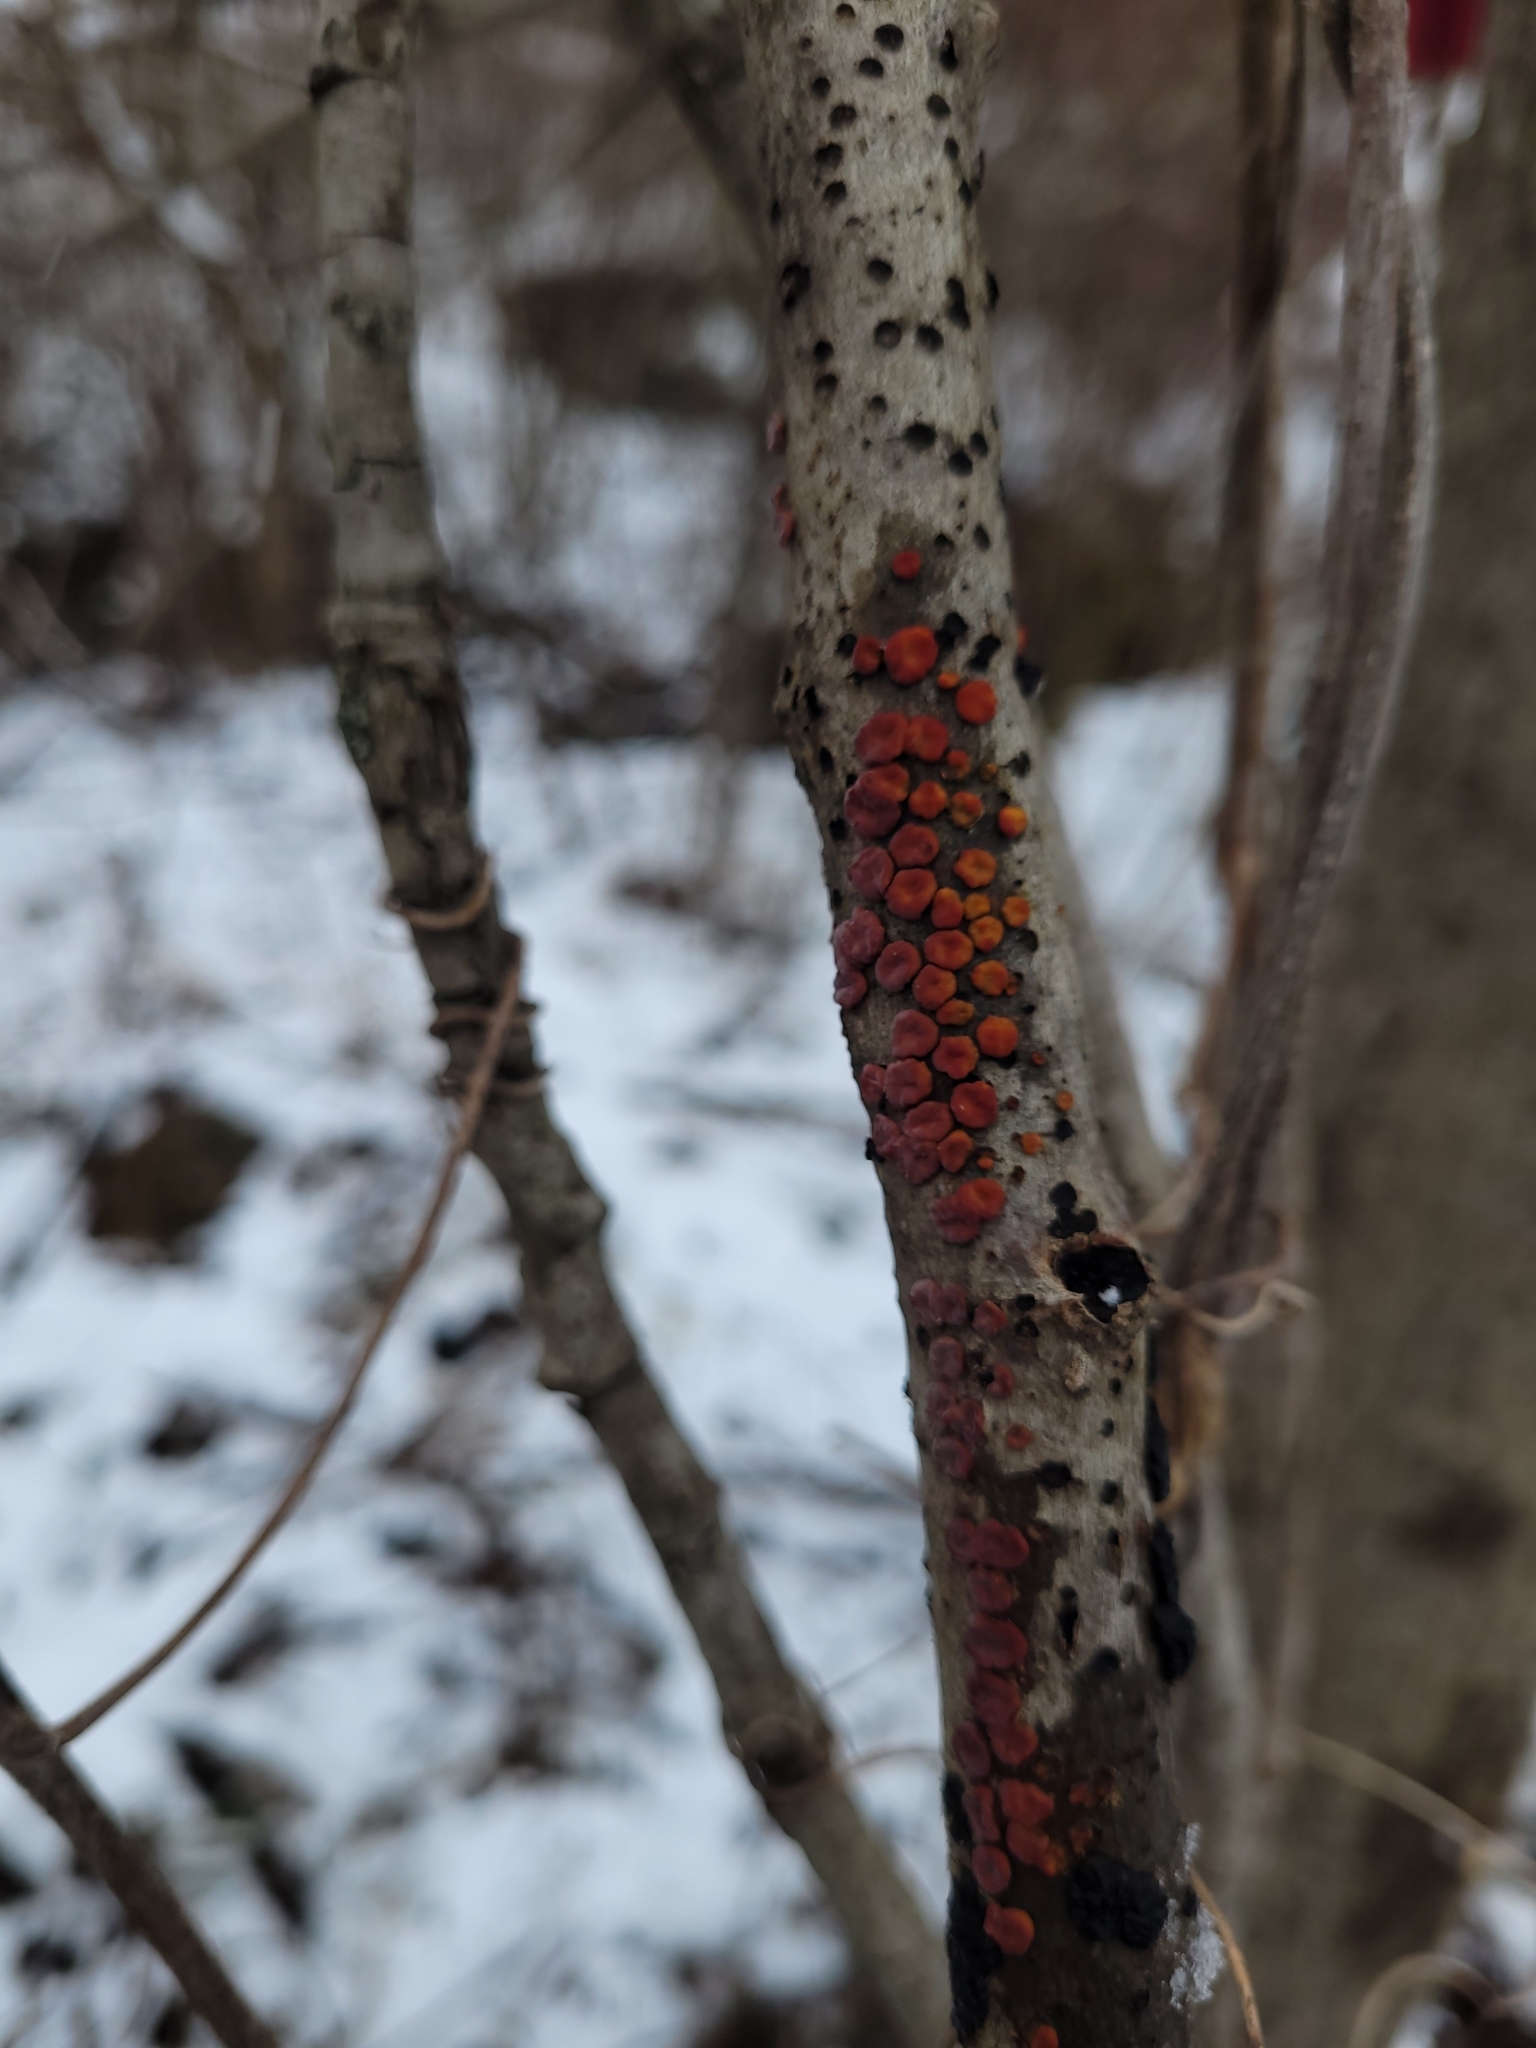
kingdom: Fungi
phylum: Basidiomycota
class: Agaricomycetes
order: Russulales
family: Peniophoraceae
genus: Peniophora
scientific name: Peniophora rufa
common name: Red tree brain fungus
